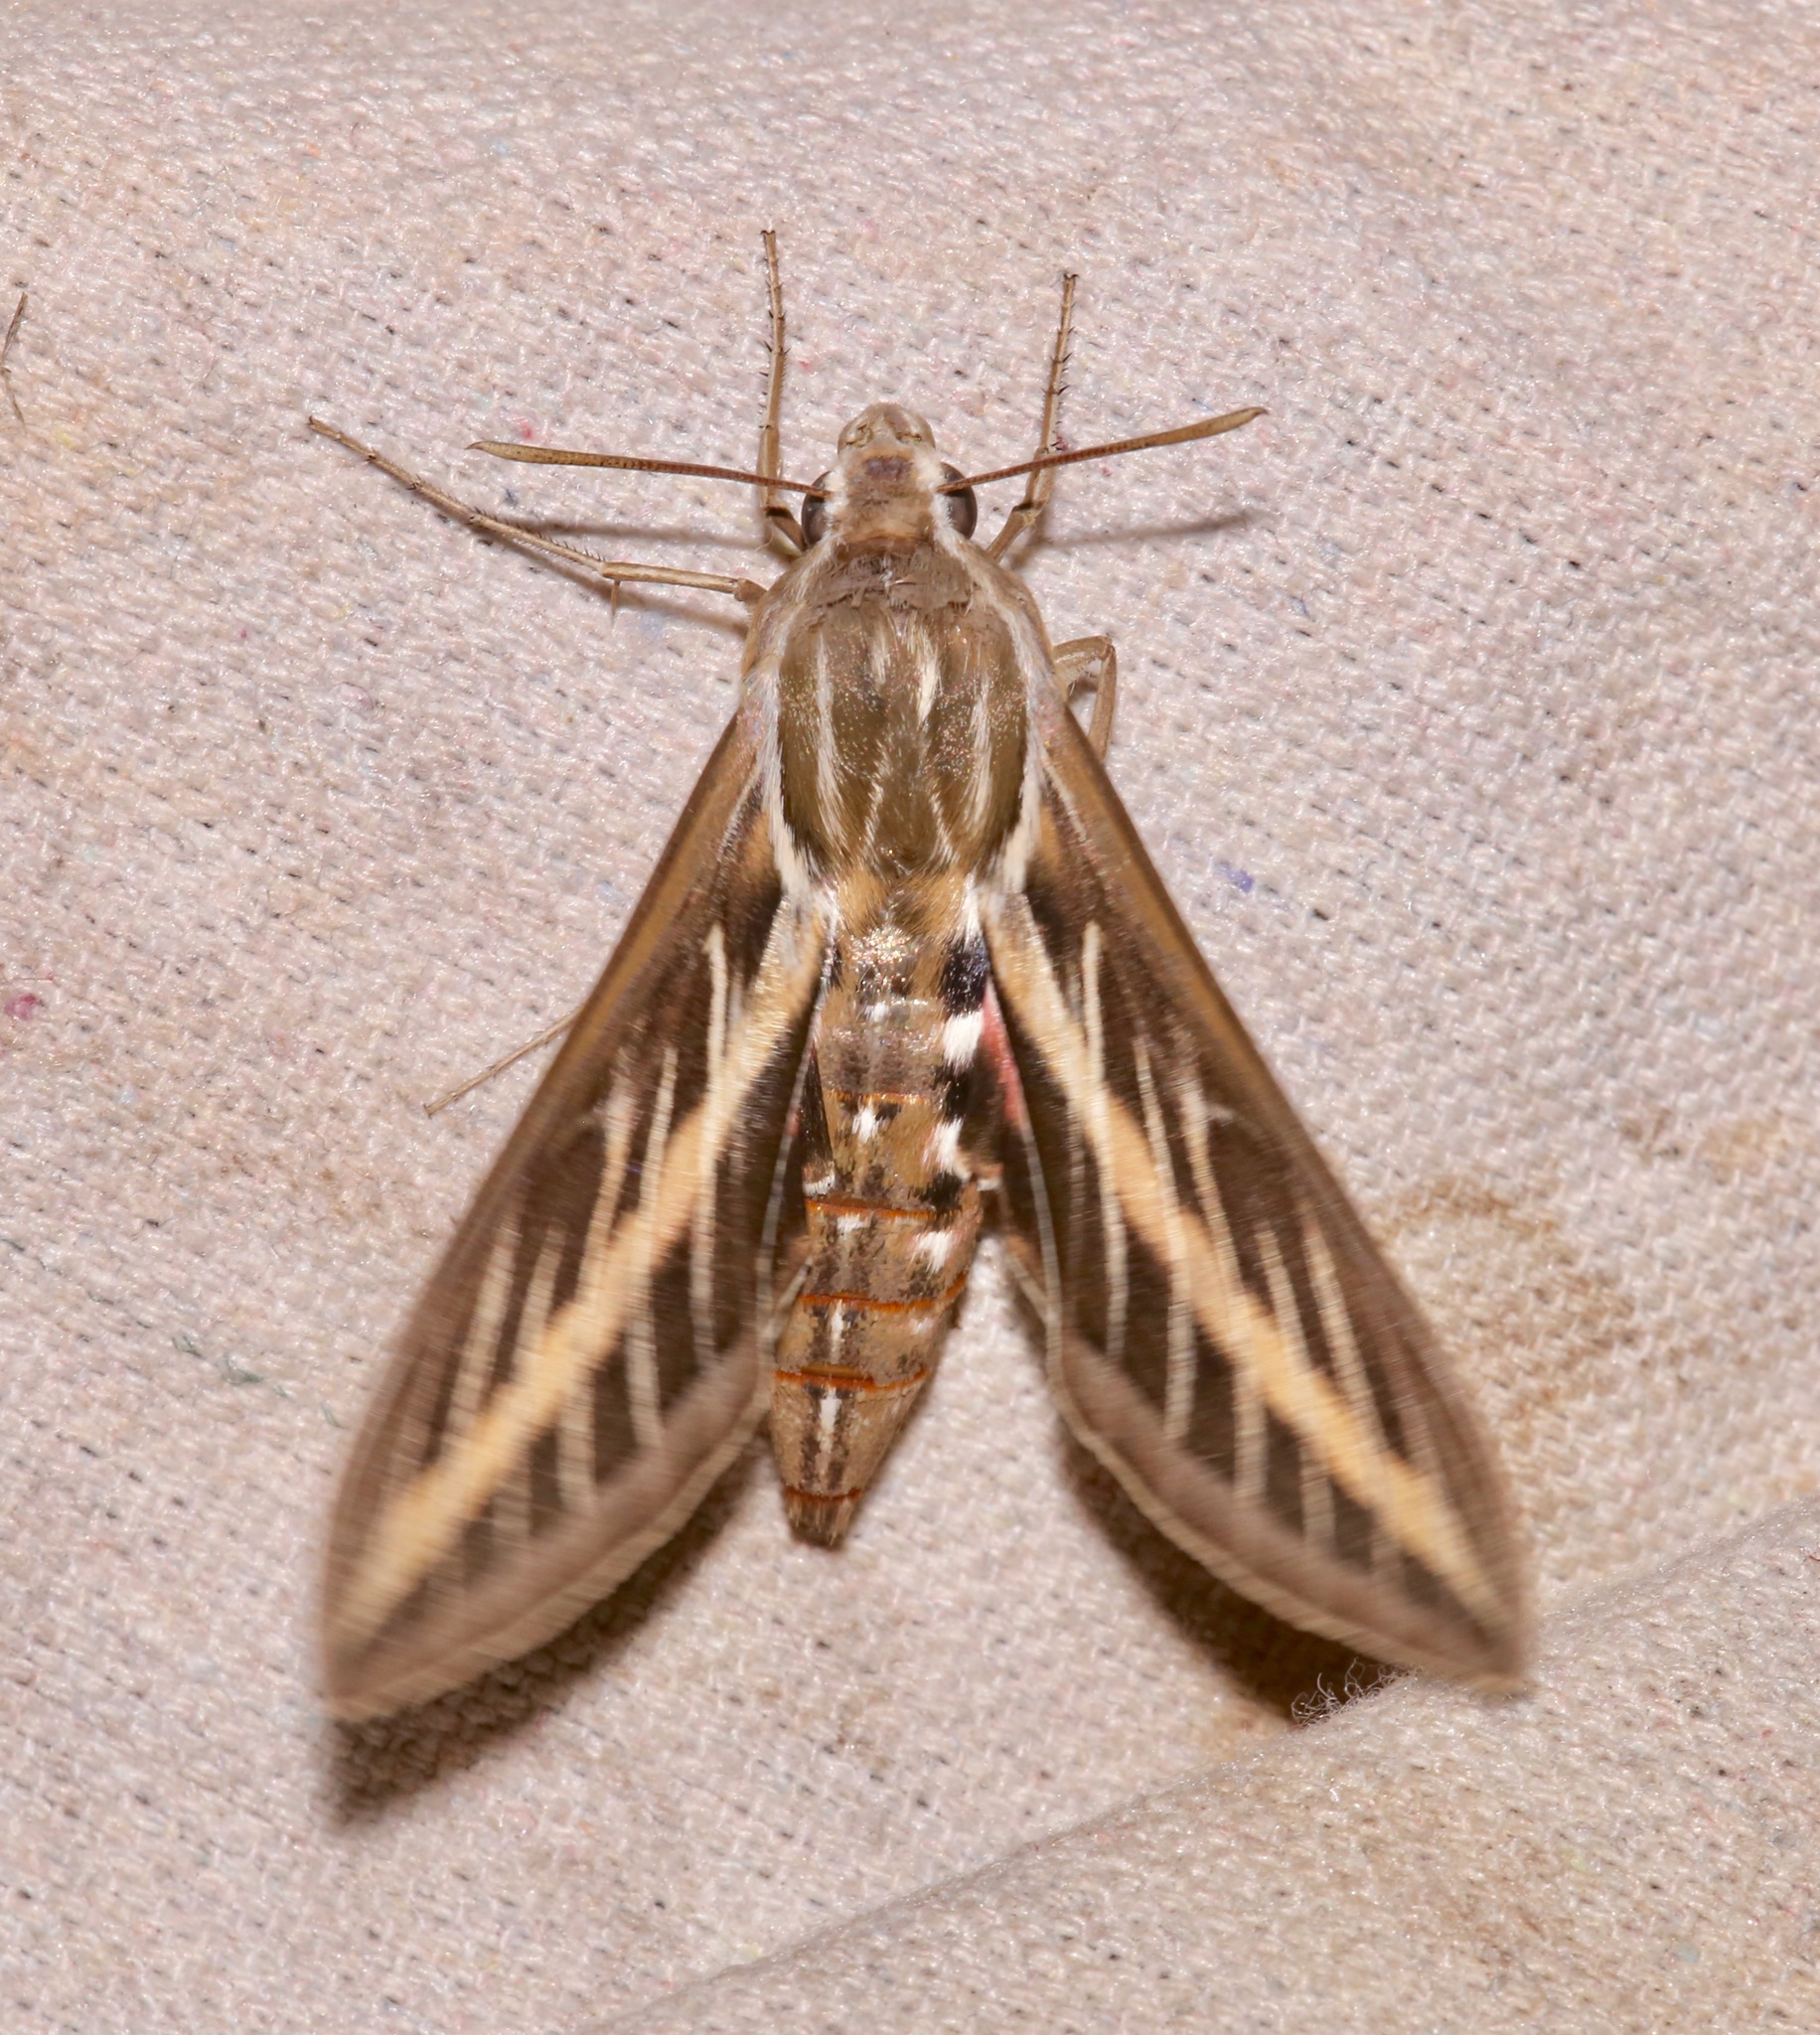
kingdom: Animalia
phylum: Arthropoda
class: Insecta
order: Lepidoptera
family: Sphingidae
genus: Hyles
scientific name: Hyles lineata
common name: White-lined sphinx
